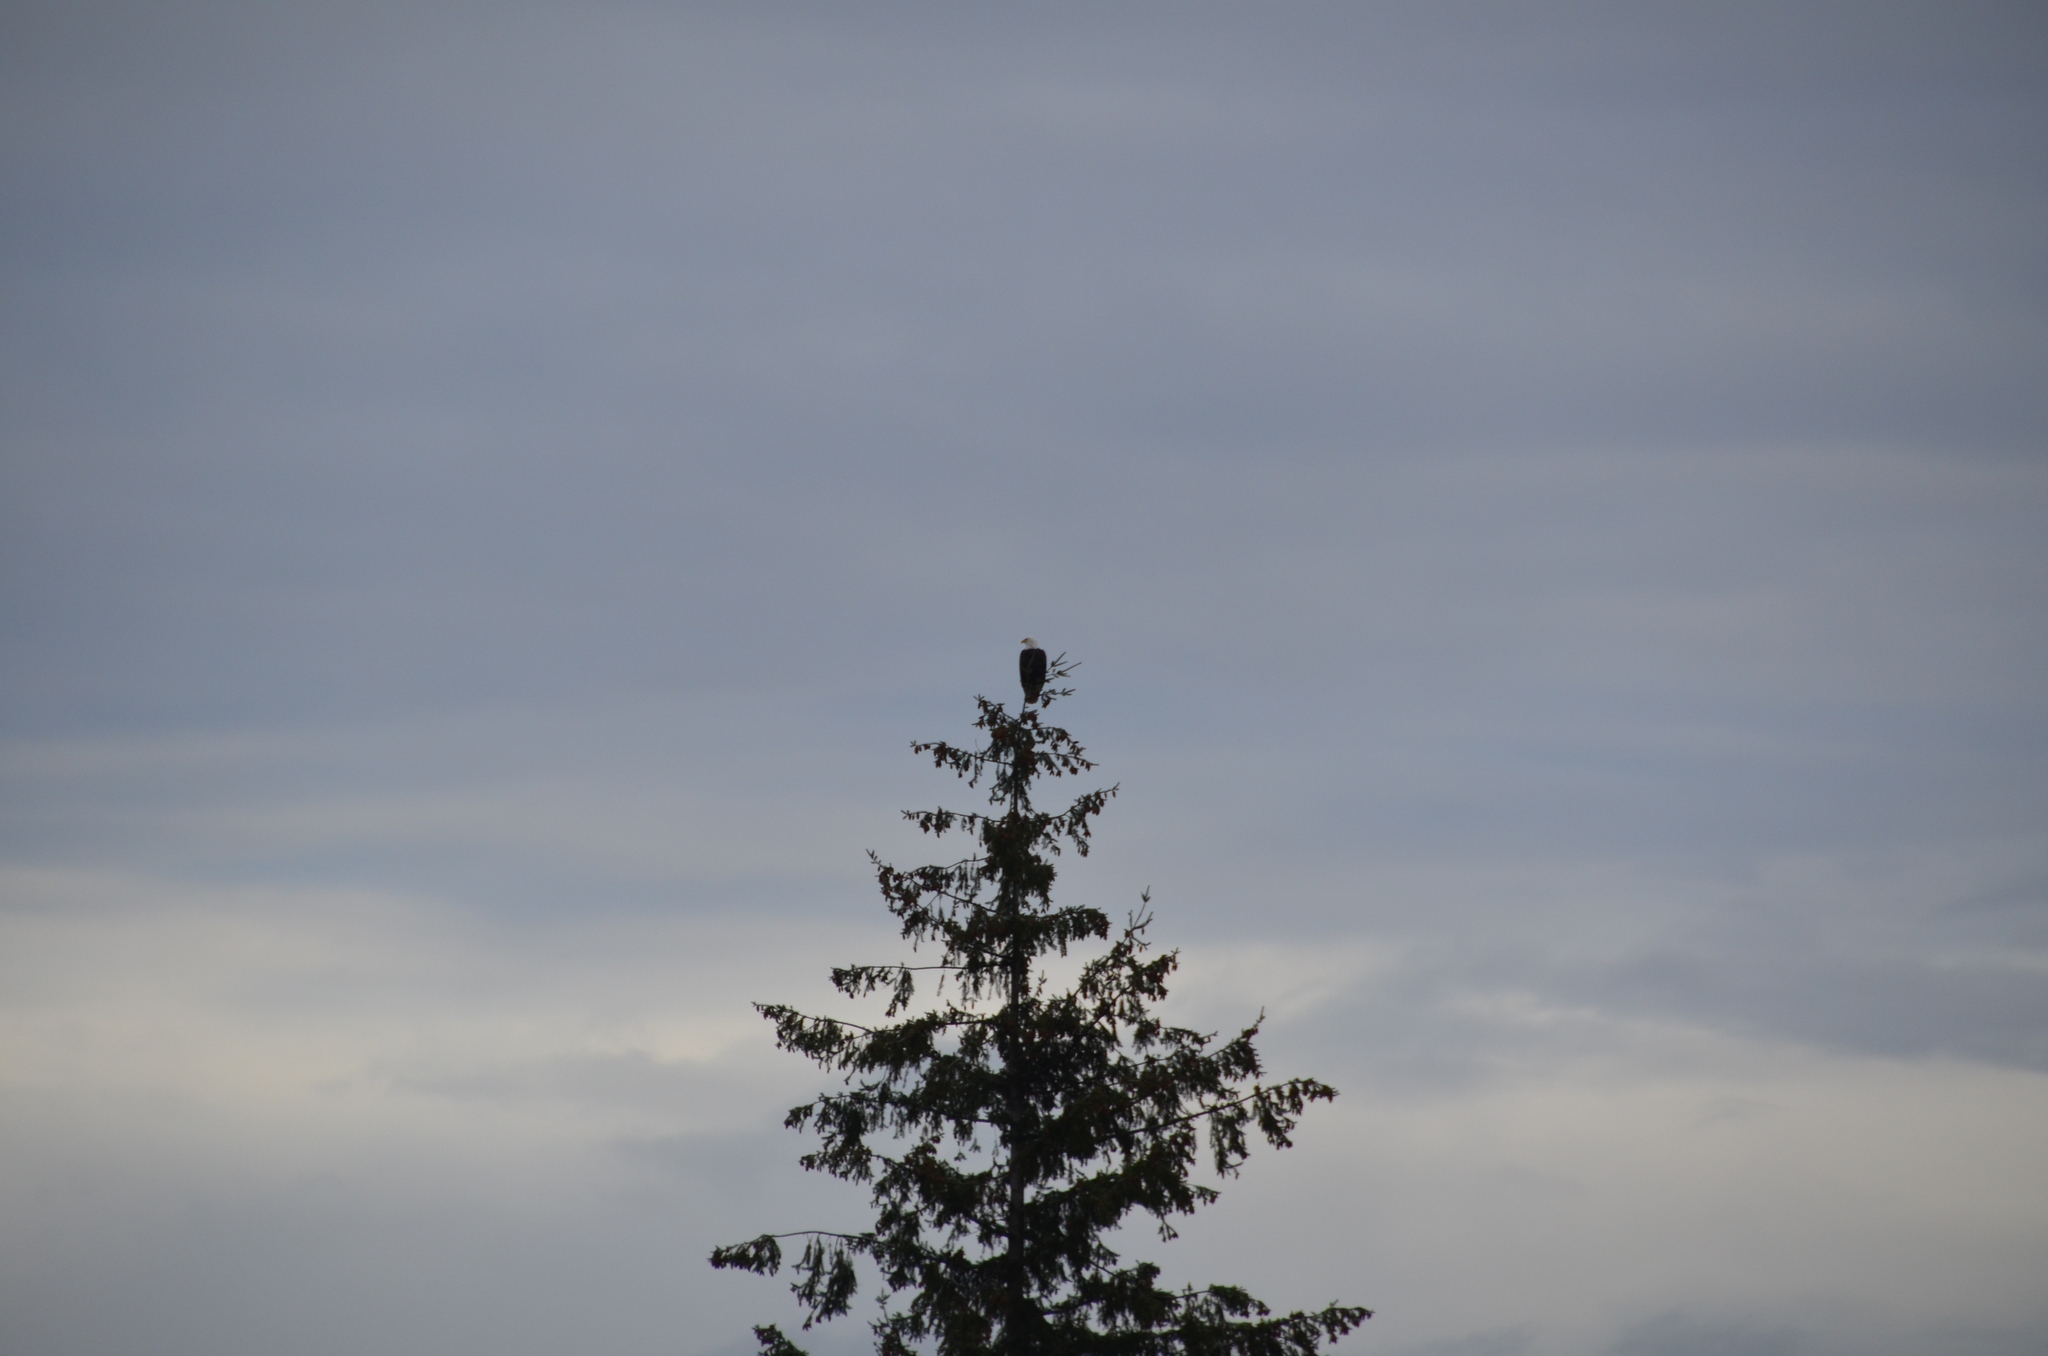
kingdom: Animalia
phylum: Chordata
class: Aves
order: Accipitriformes
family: Accipitridae
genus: Haliaeetus
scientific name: Haliaeetus leucocephalus
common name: Bald eagle
